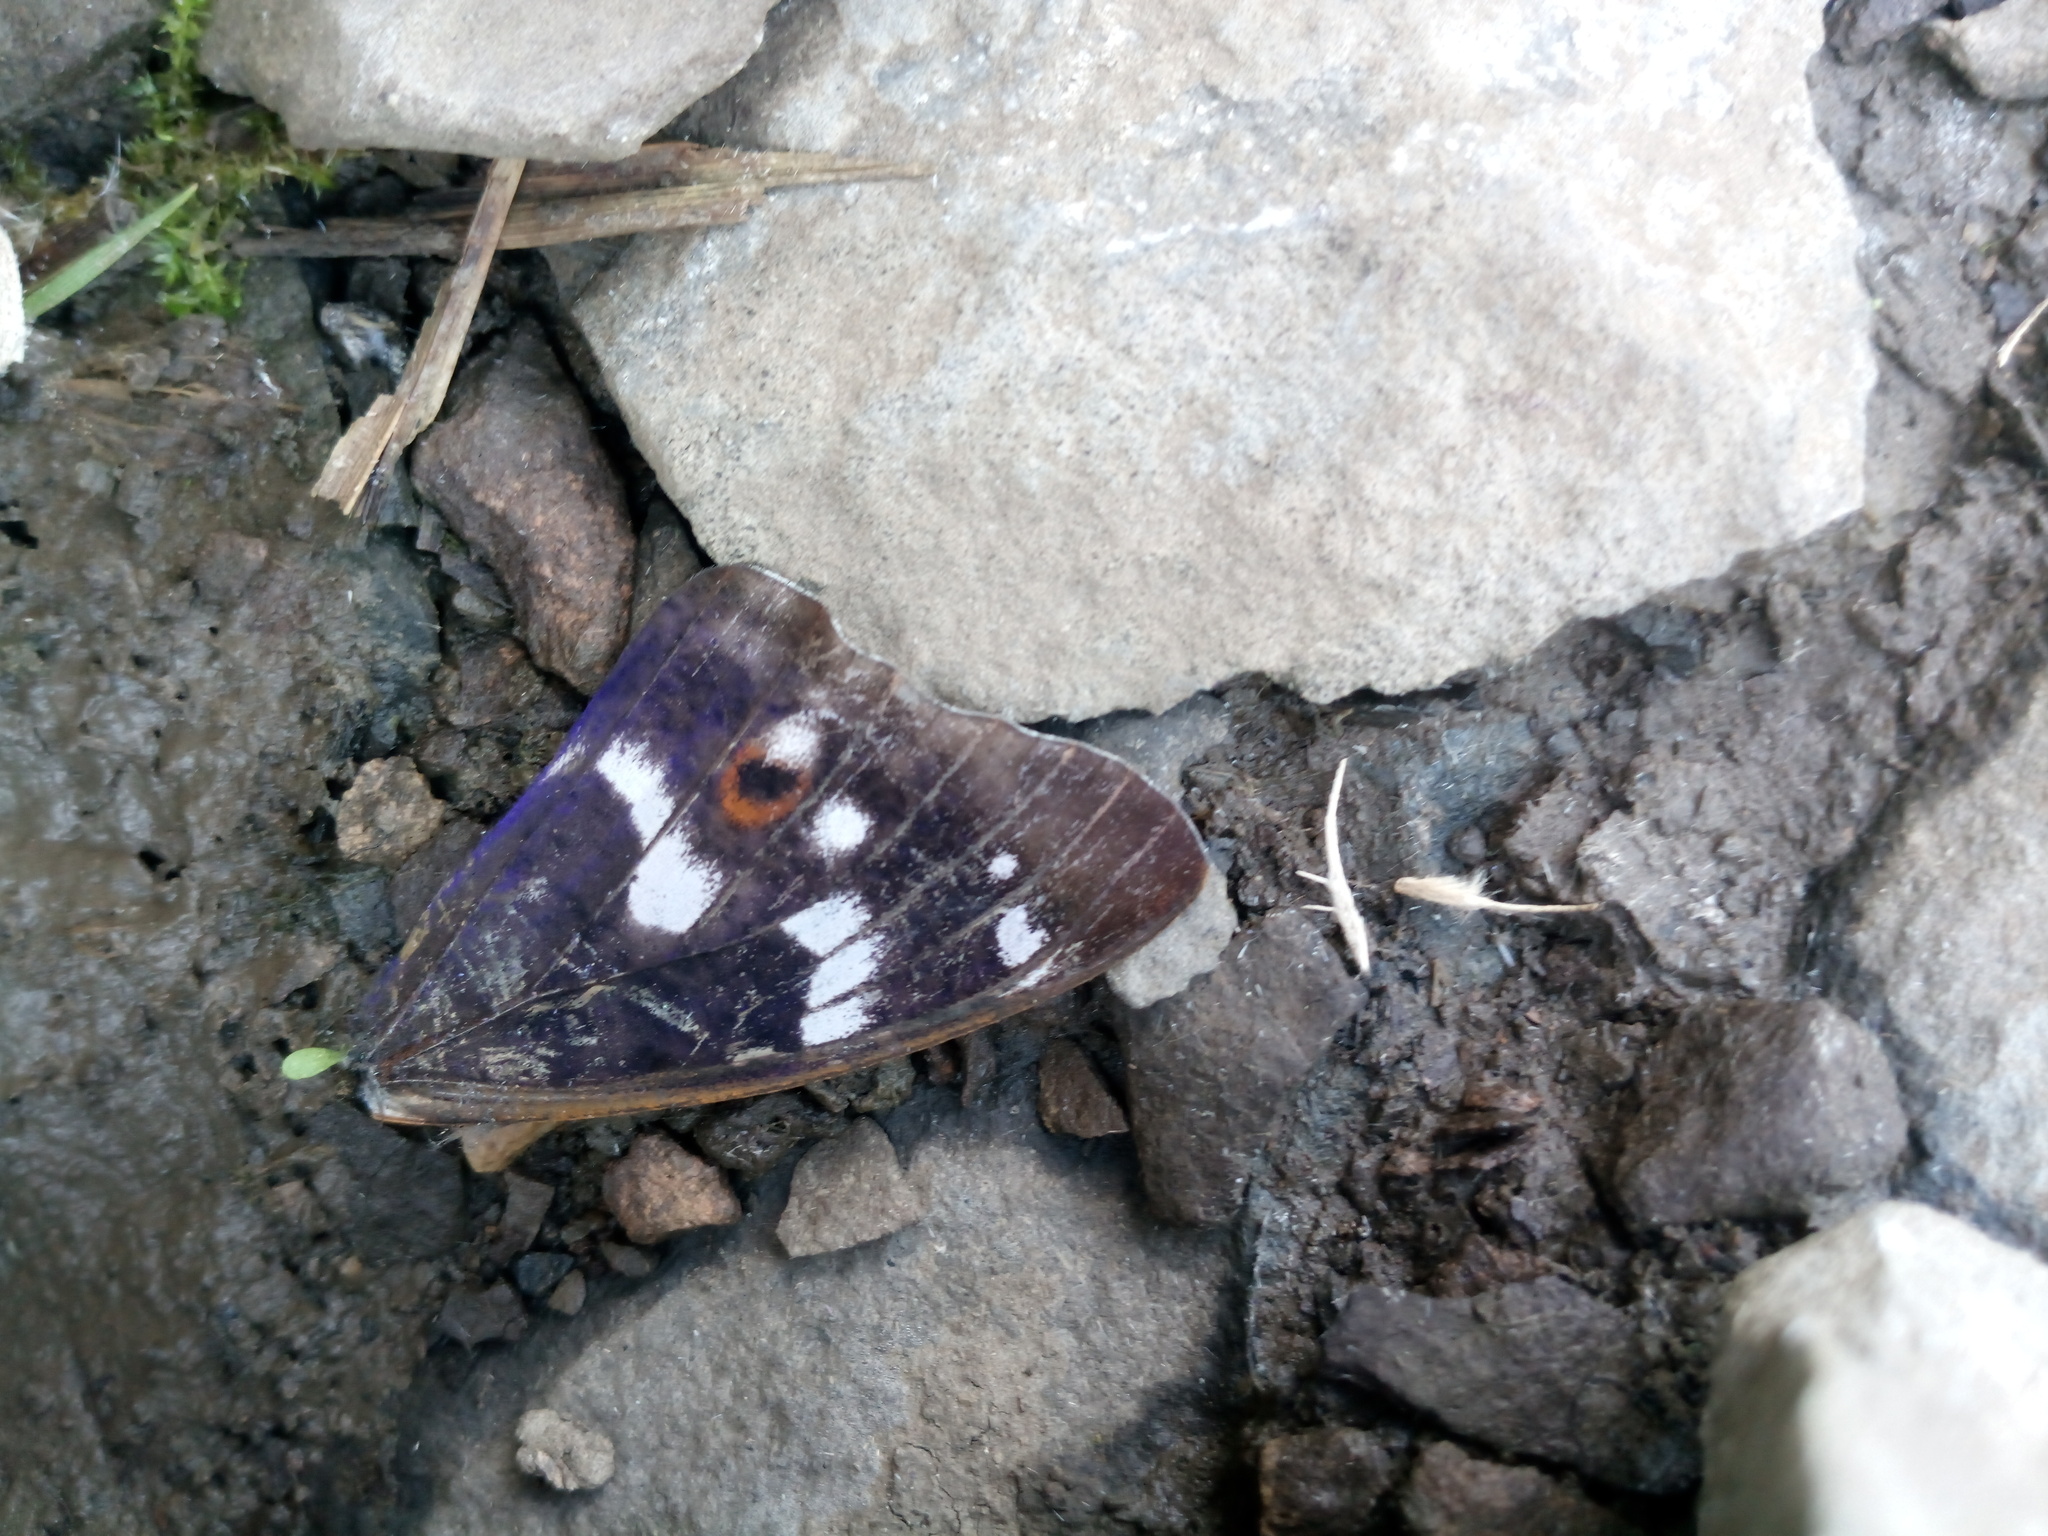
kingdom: Animalia
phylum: Arthropoda
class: Insecta
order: Lepidoptera
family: Nymphalidae
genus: Apatura
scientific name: Apatura ilia
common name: Lesser purple emperor
